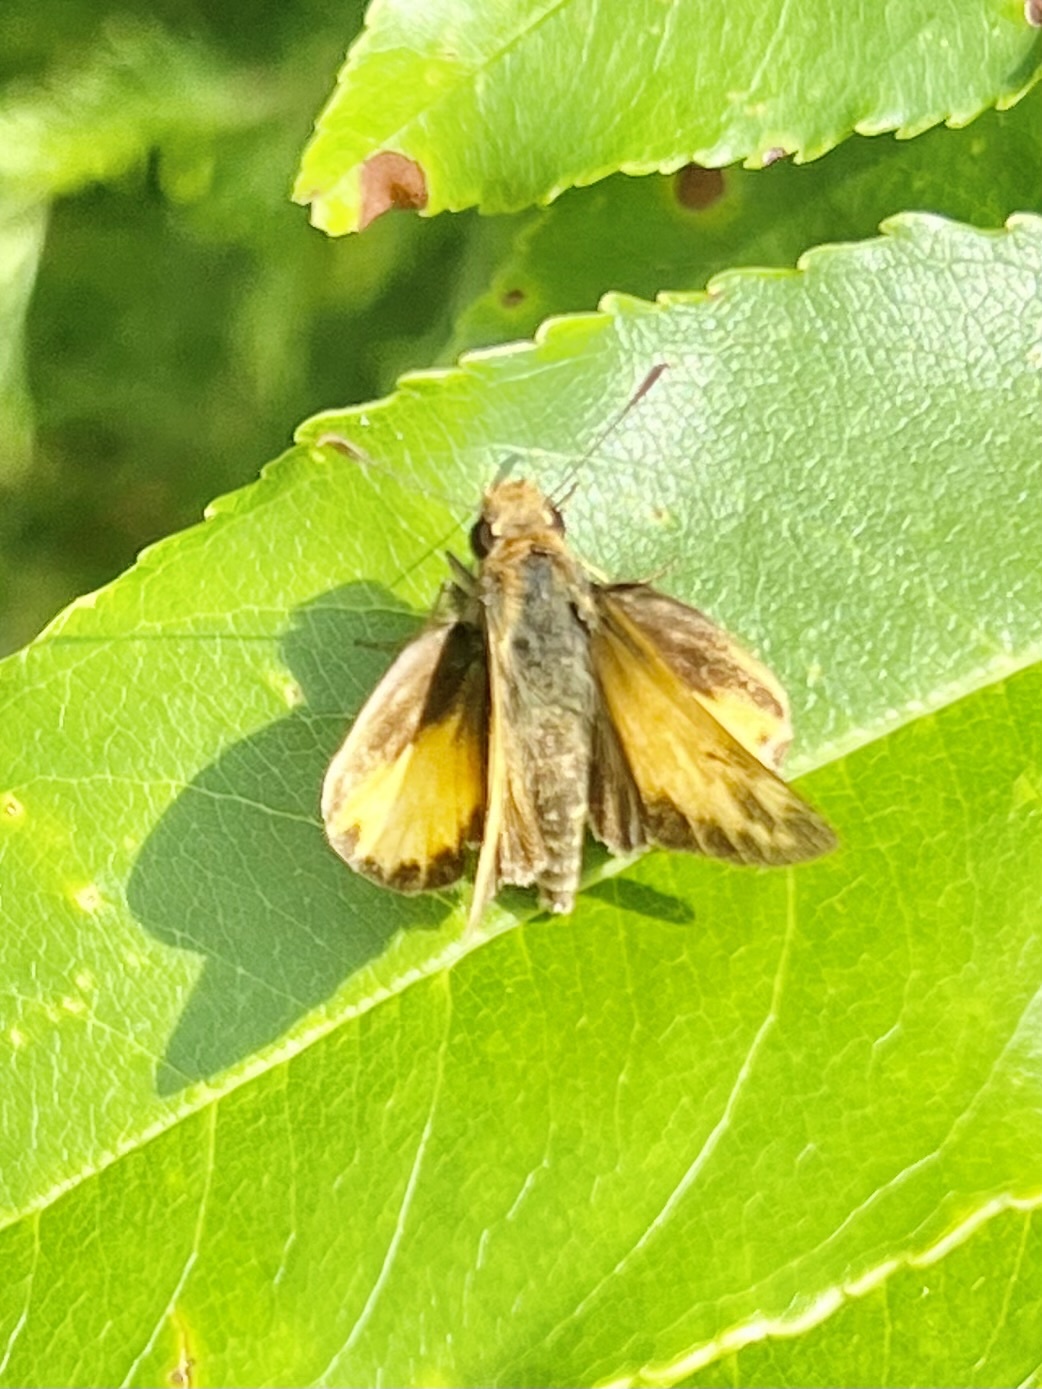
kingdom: Animalia
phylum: Arthropoda
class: Insecta
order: Lepidoptera
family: Hesperiidae
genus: Lon
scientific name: Lon zabulon
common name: Zabulon skipper
